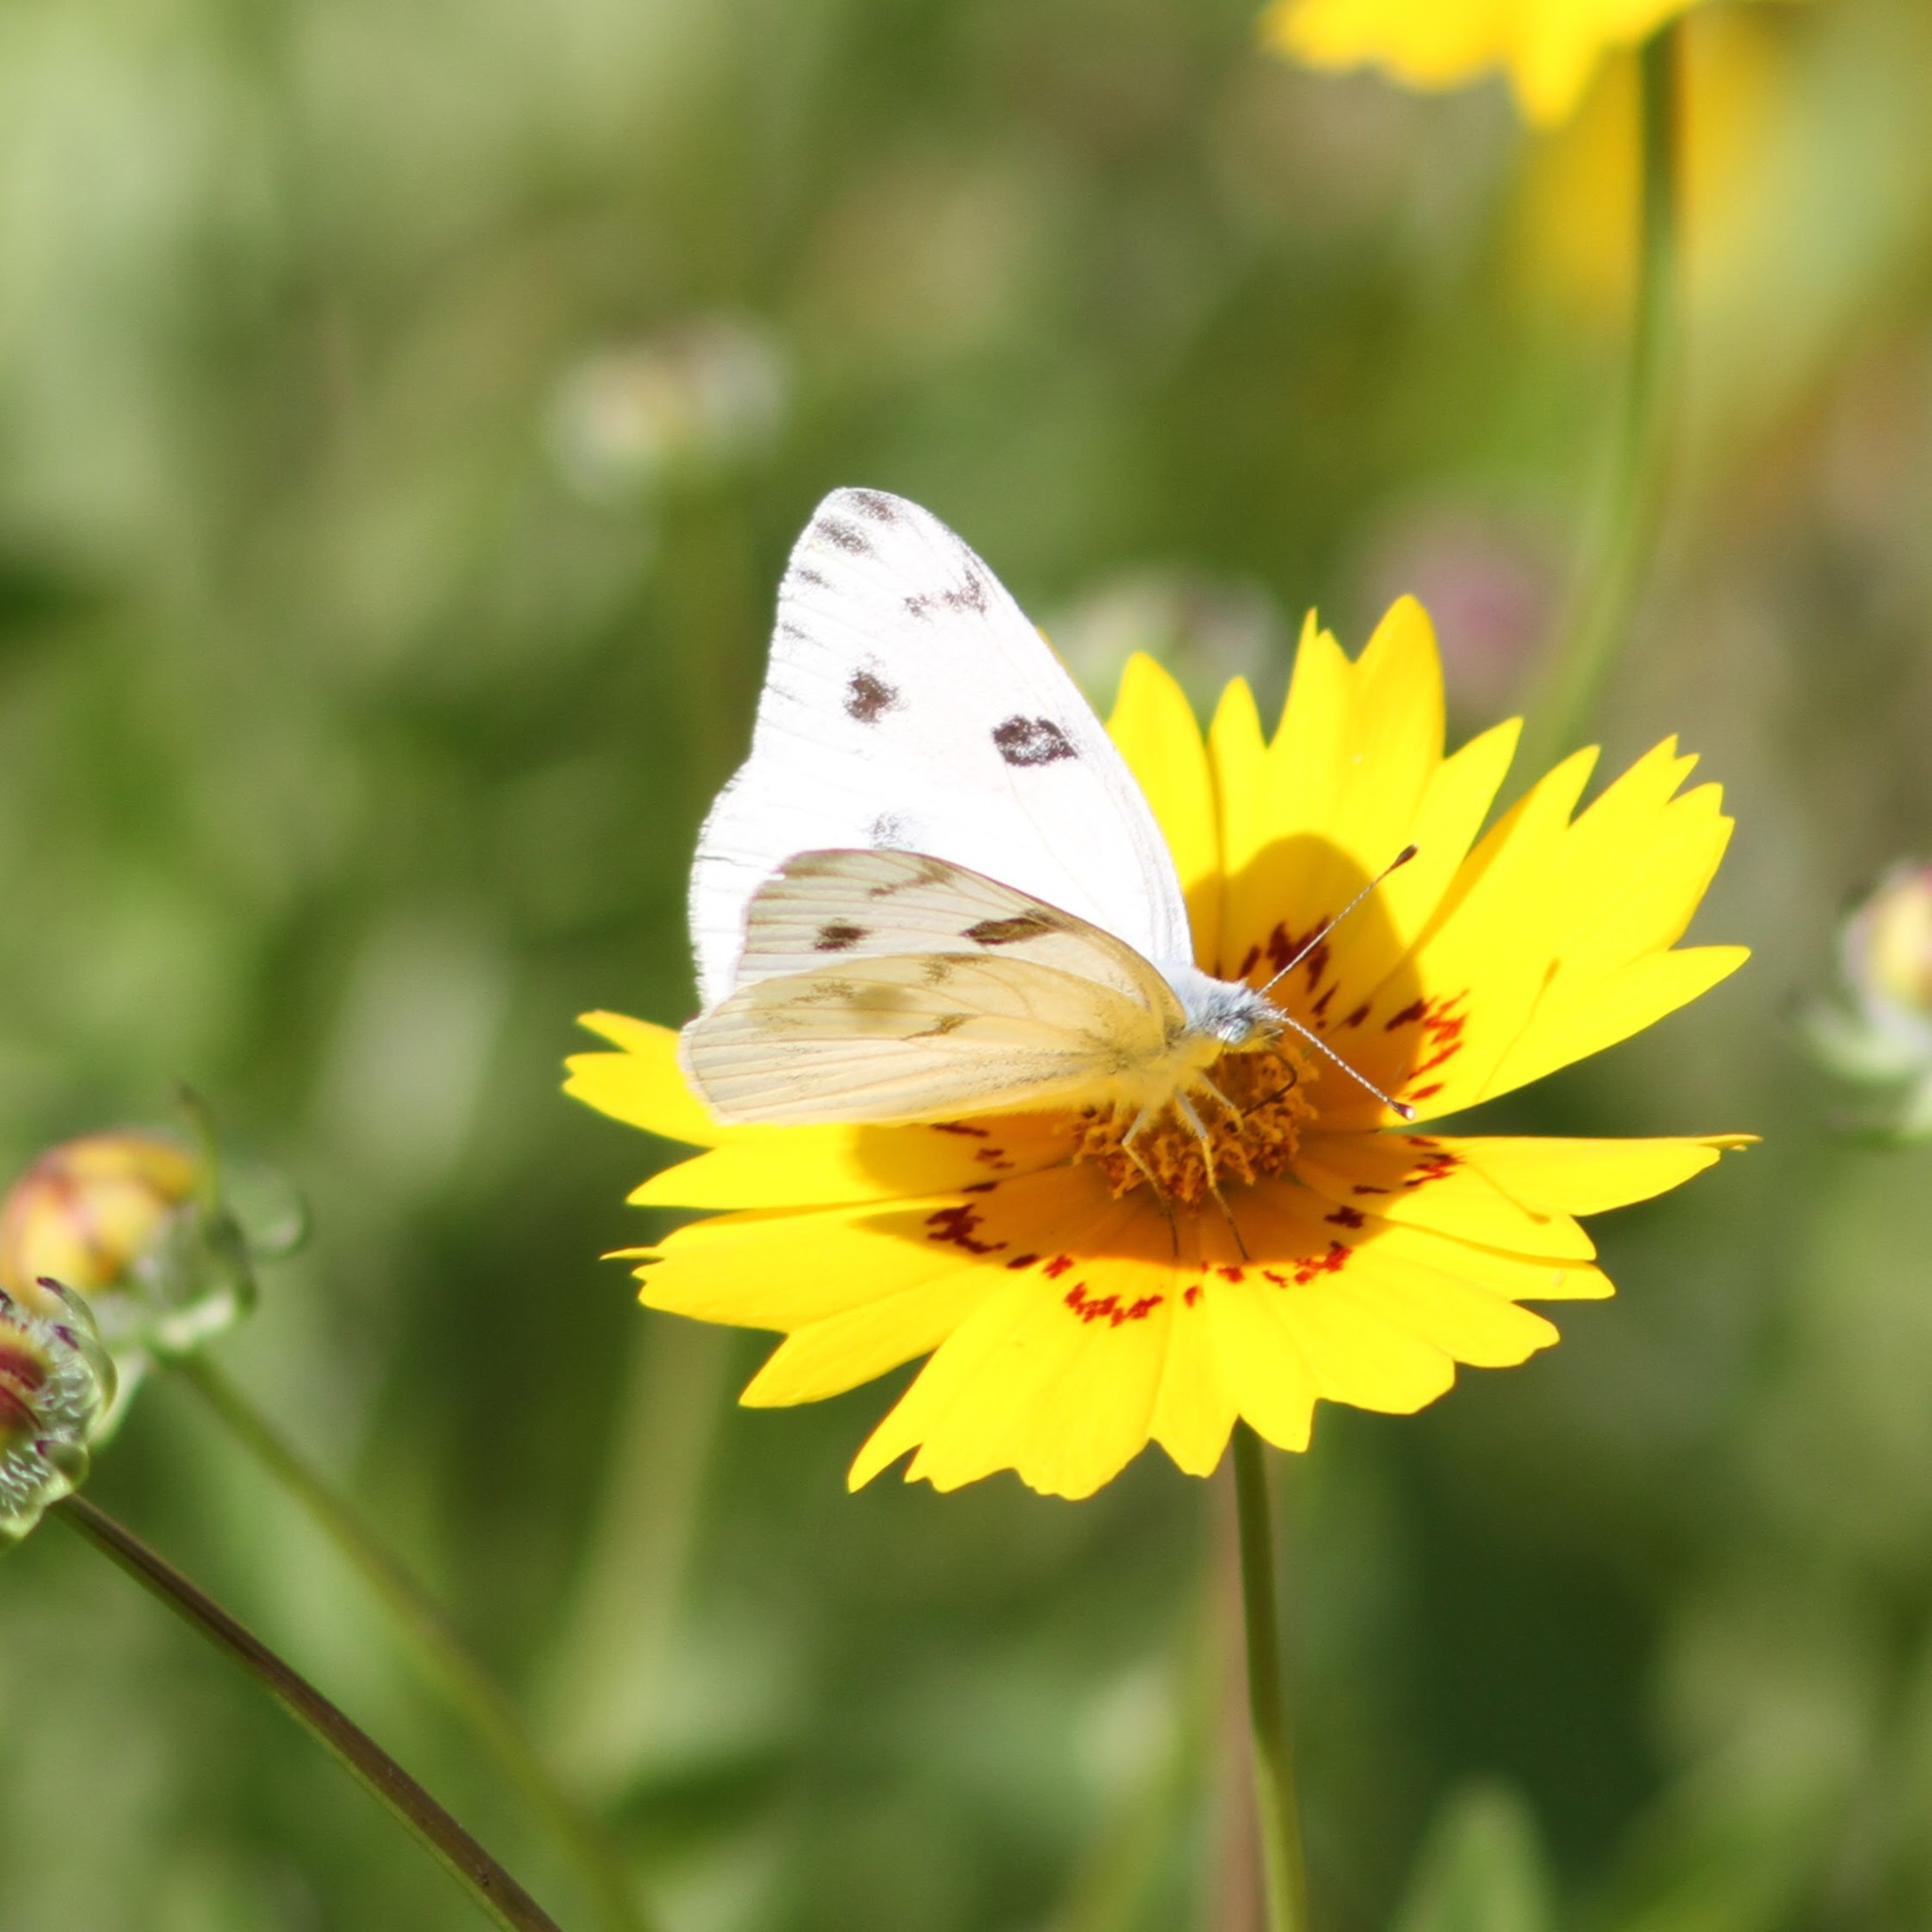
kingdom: Animalia
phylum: Arthropoda
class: Insecta
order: Lepidoptera
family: Pieridae
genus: Pontia
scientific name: Pontia protodice
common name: Checkered white
